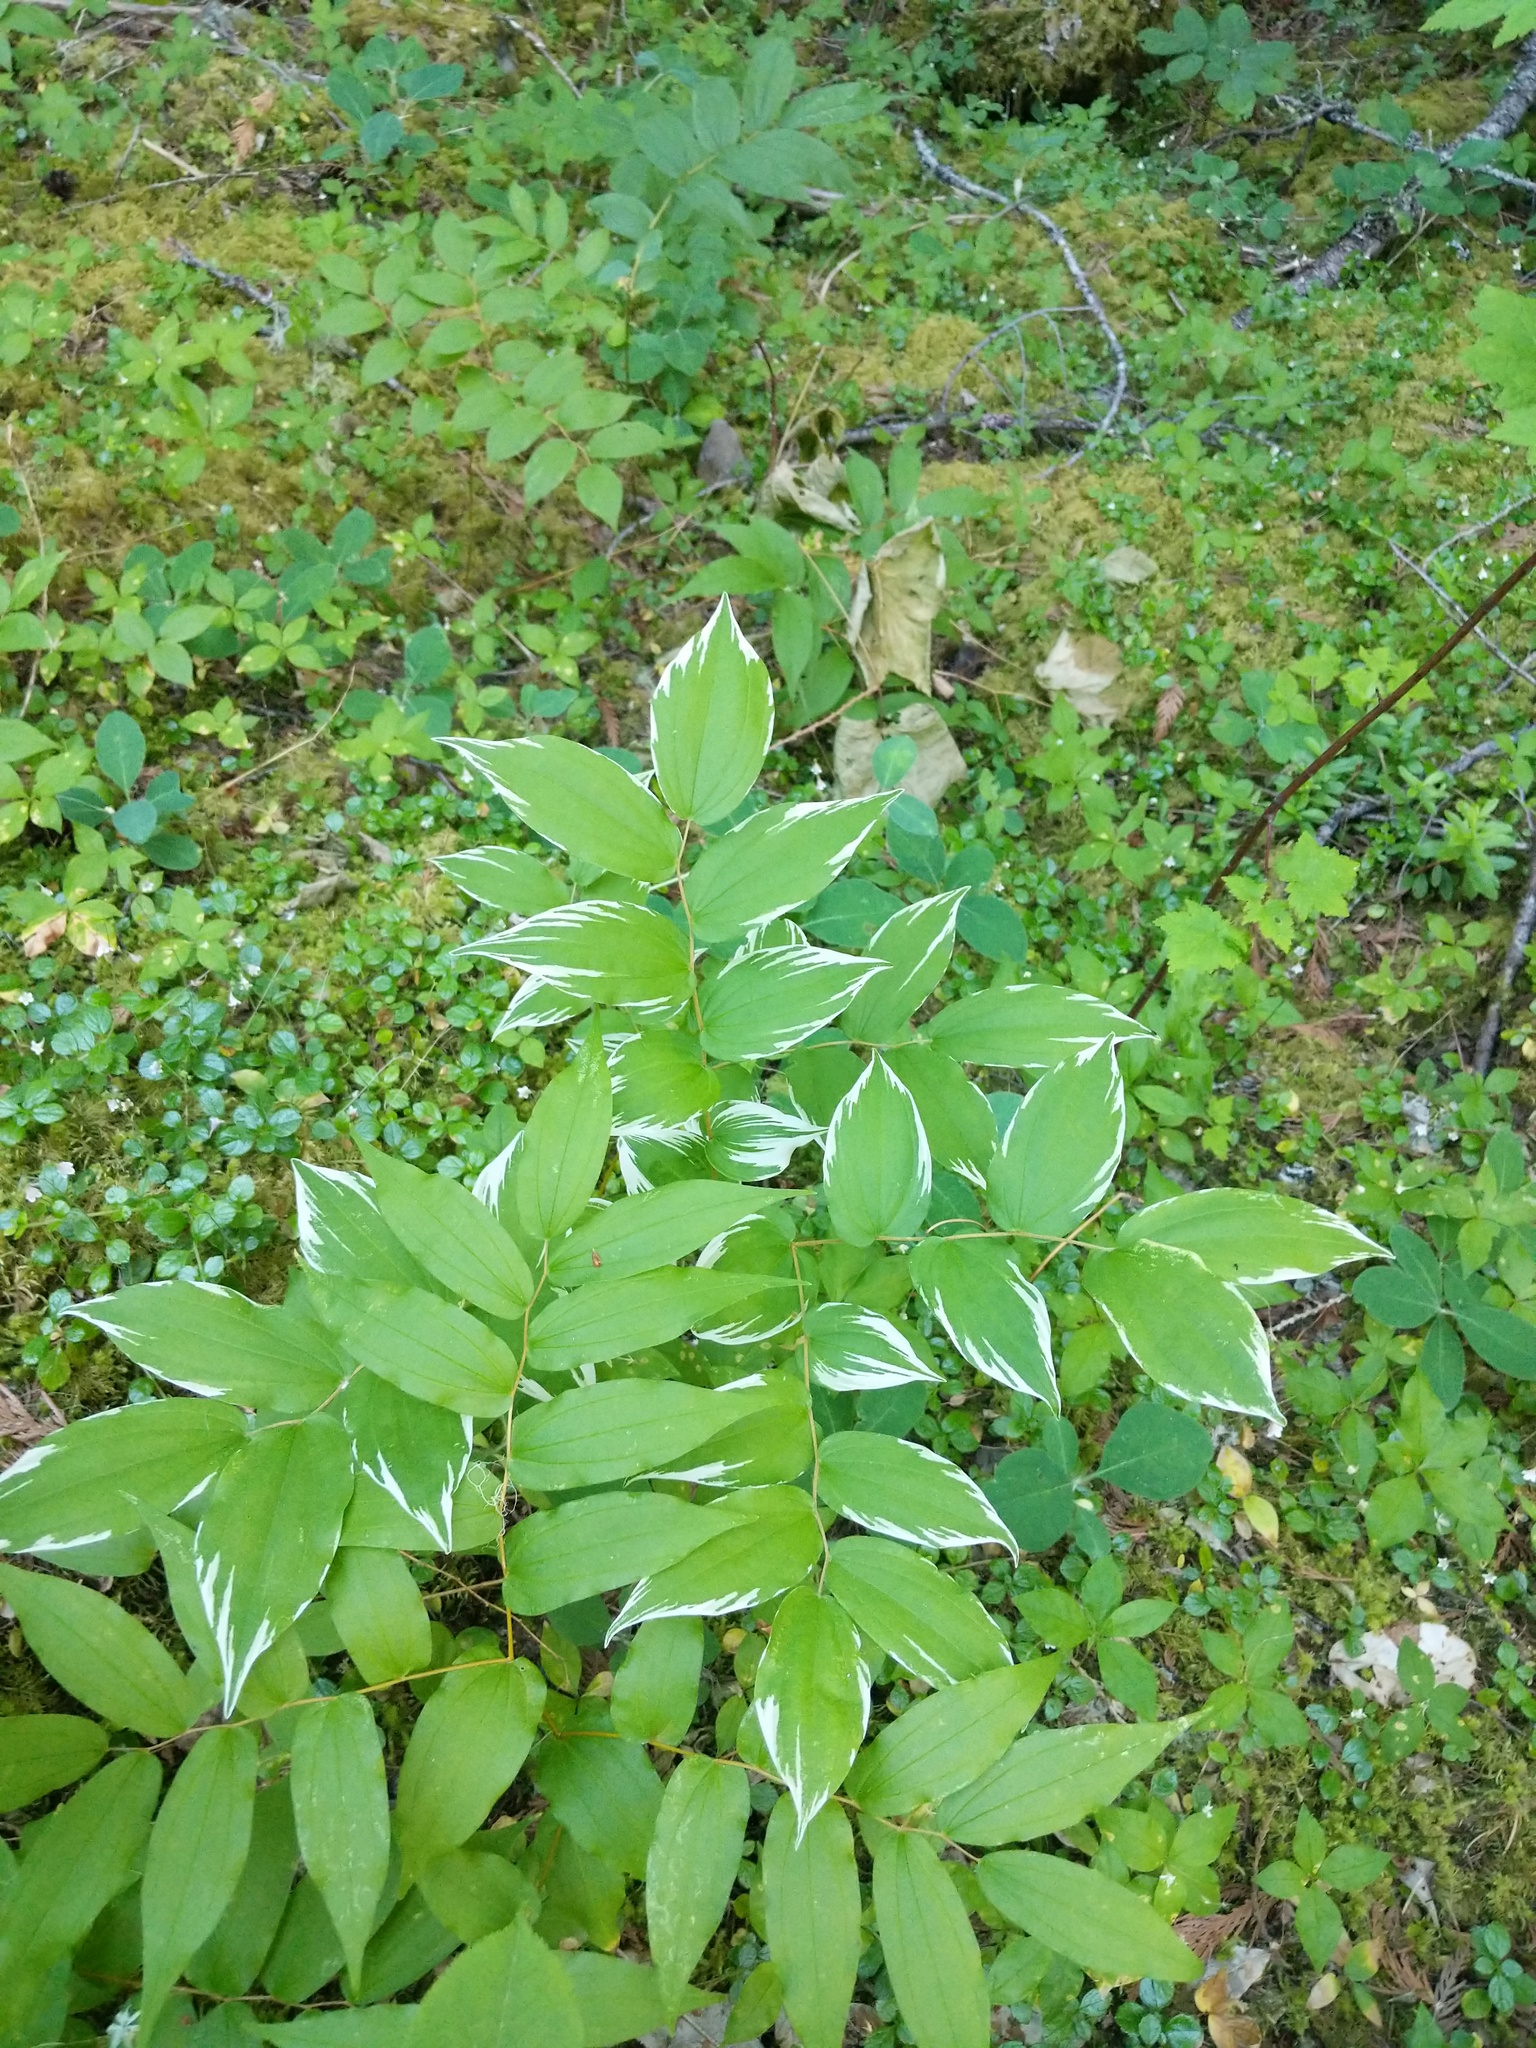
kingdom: Plantae
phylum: Tracheophyta
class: Liliopsida
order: Liliales
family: Liliaceae
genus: Prosartes
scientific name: Prosartes hookeri
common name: Fairy-bells
